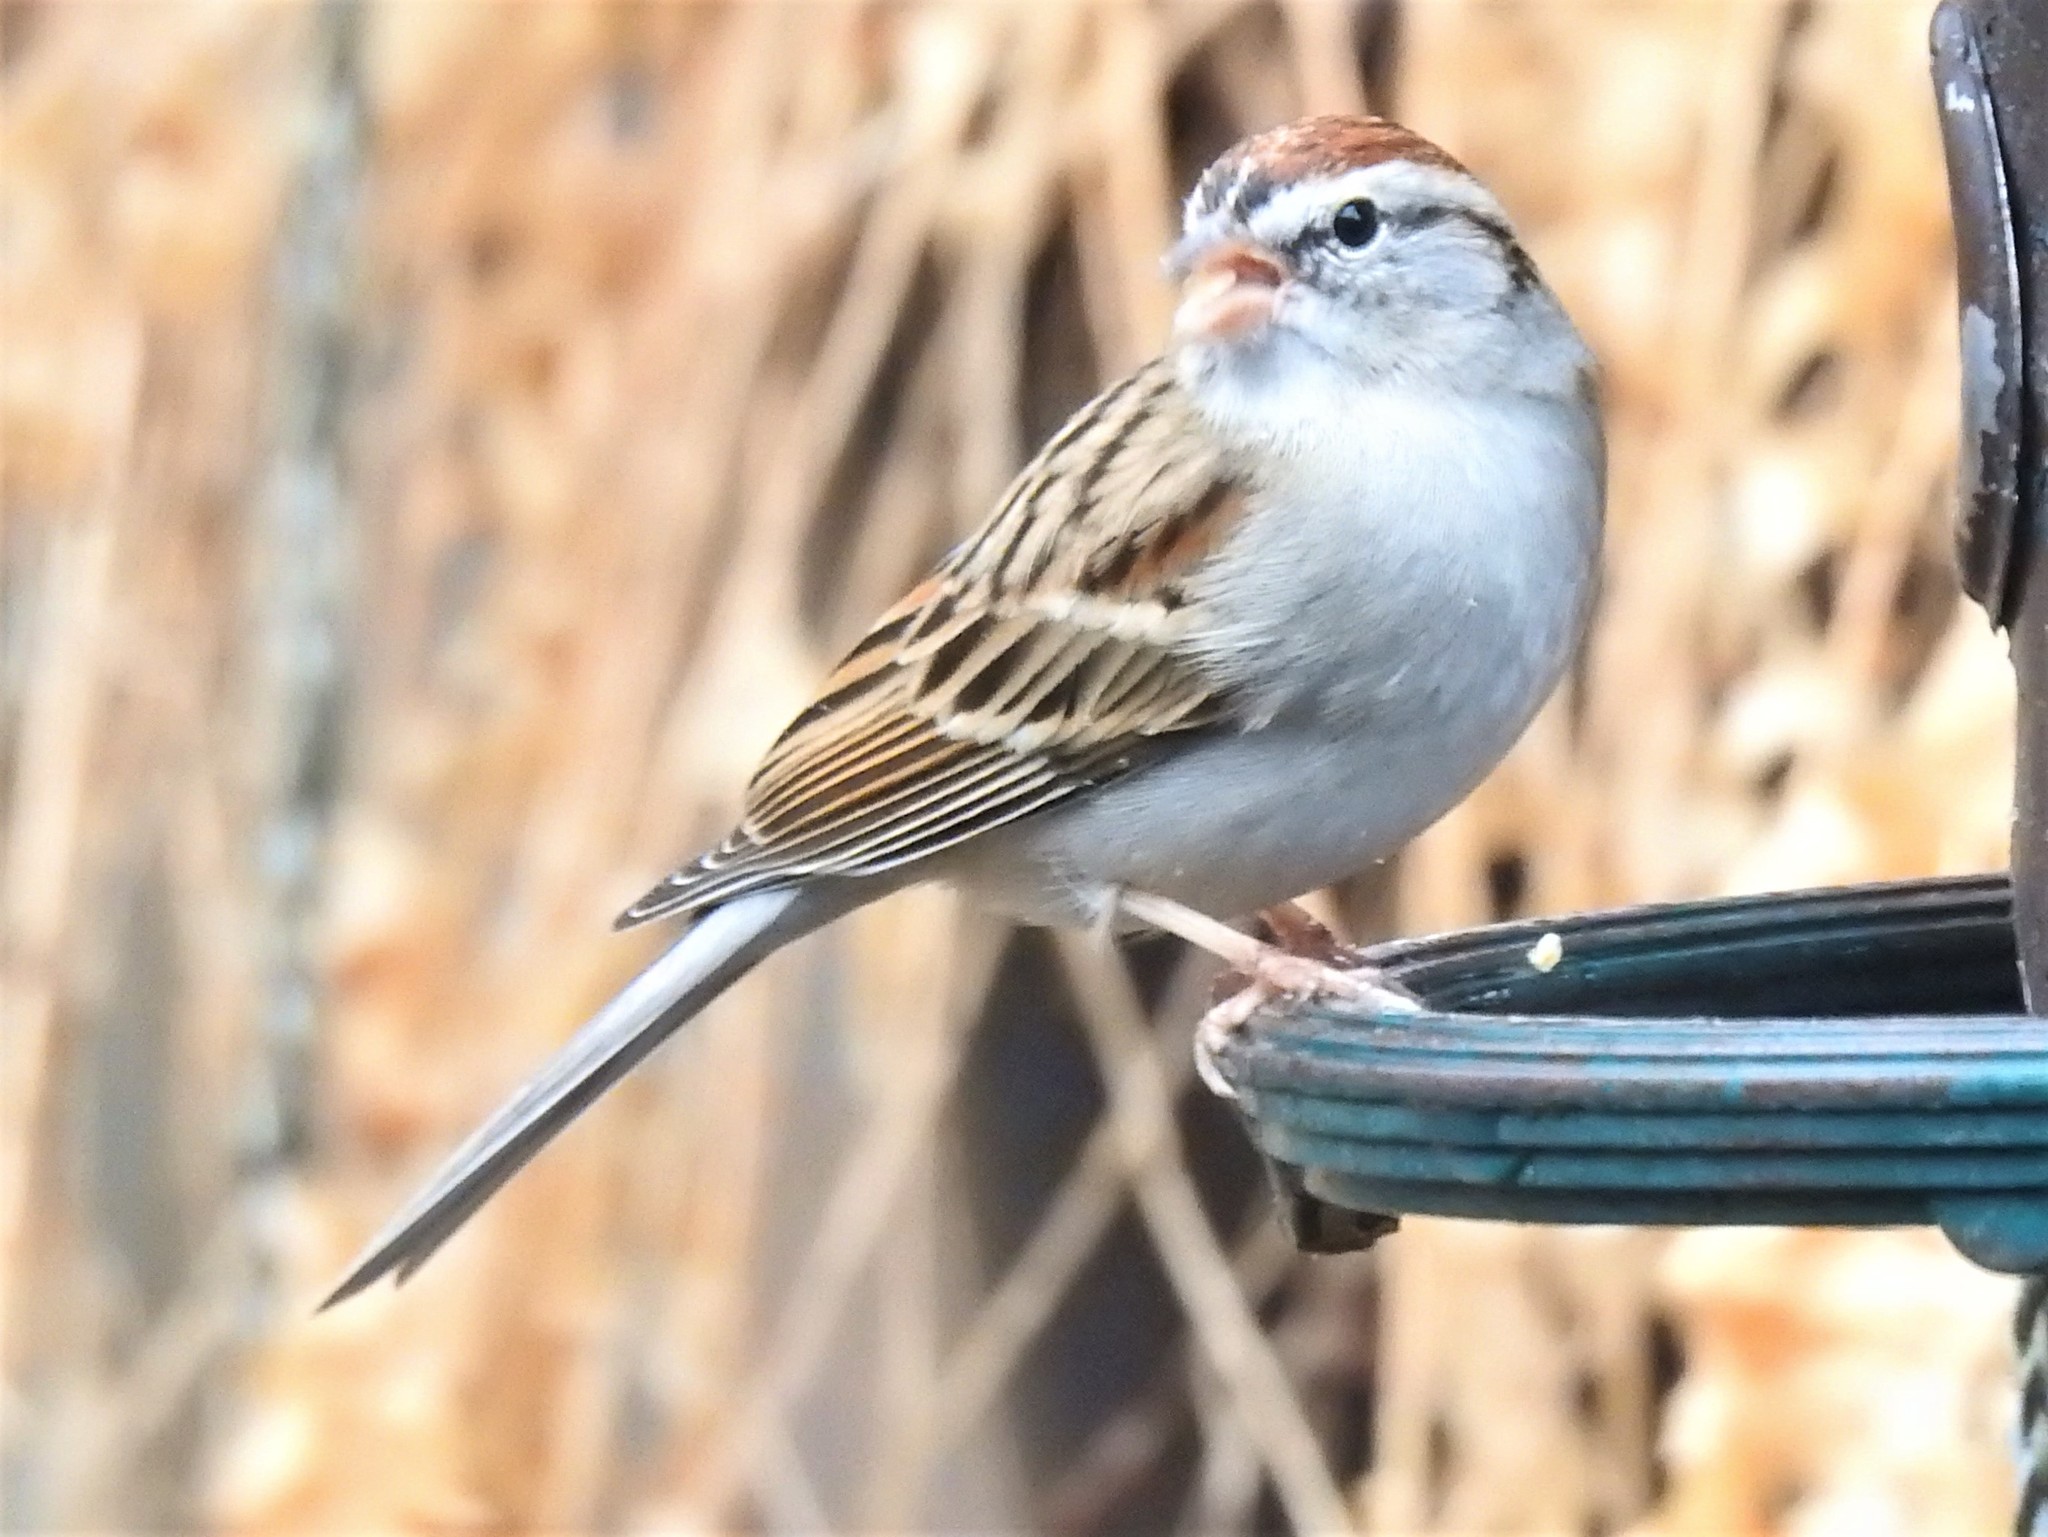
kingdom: Animalia
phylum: Chordata
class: Aves
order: Passeriformes
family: Passerellidae
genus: Spizella
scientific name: Spizella passerina
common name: Chipping sparrow
